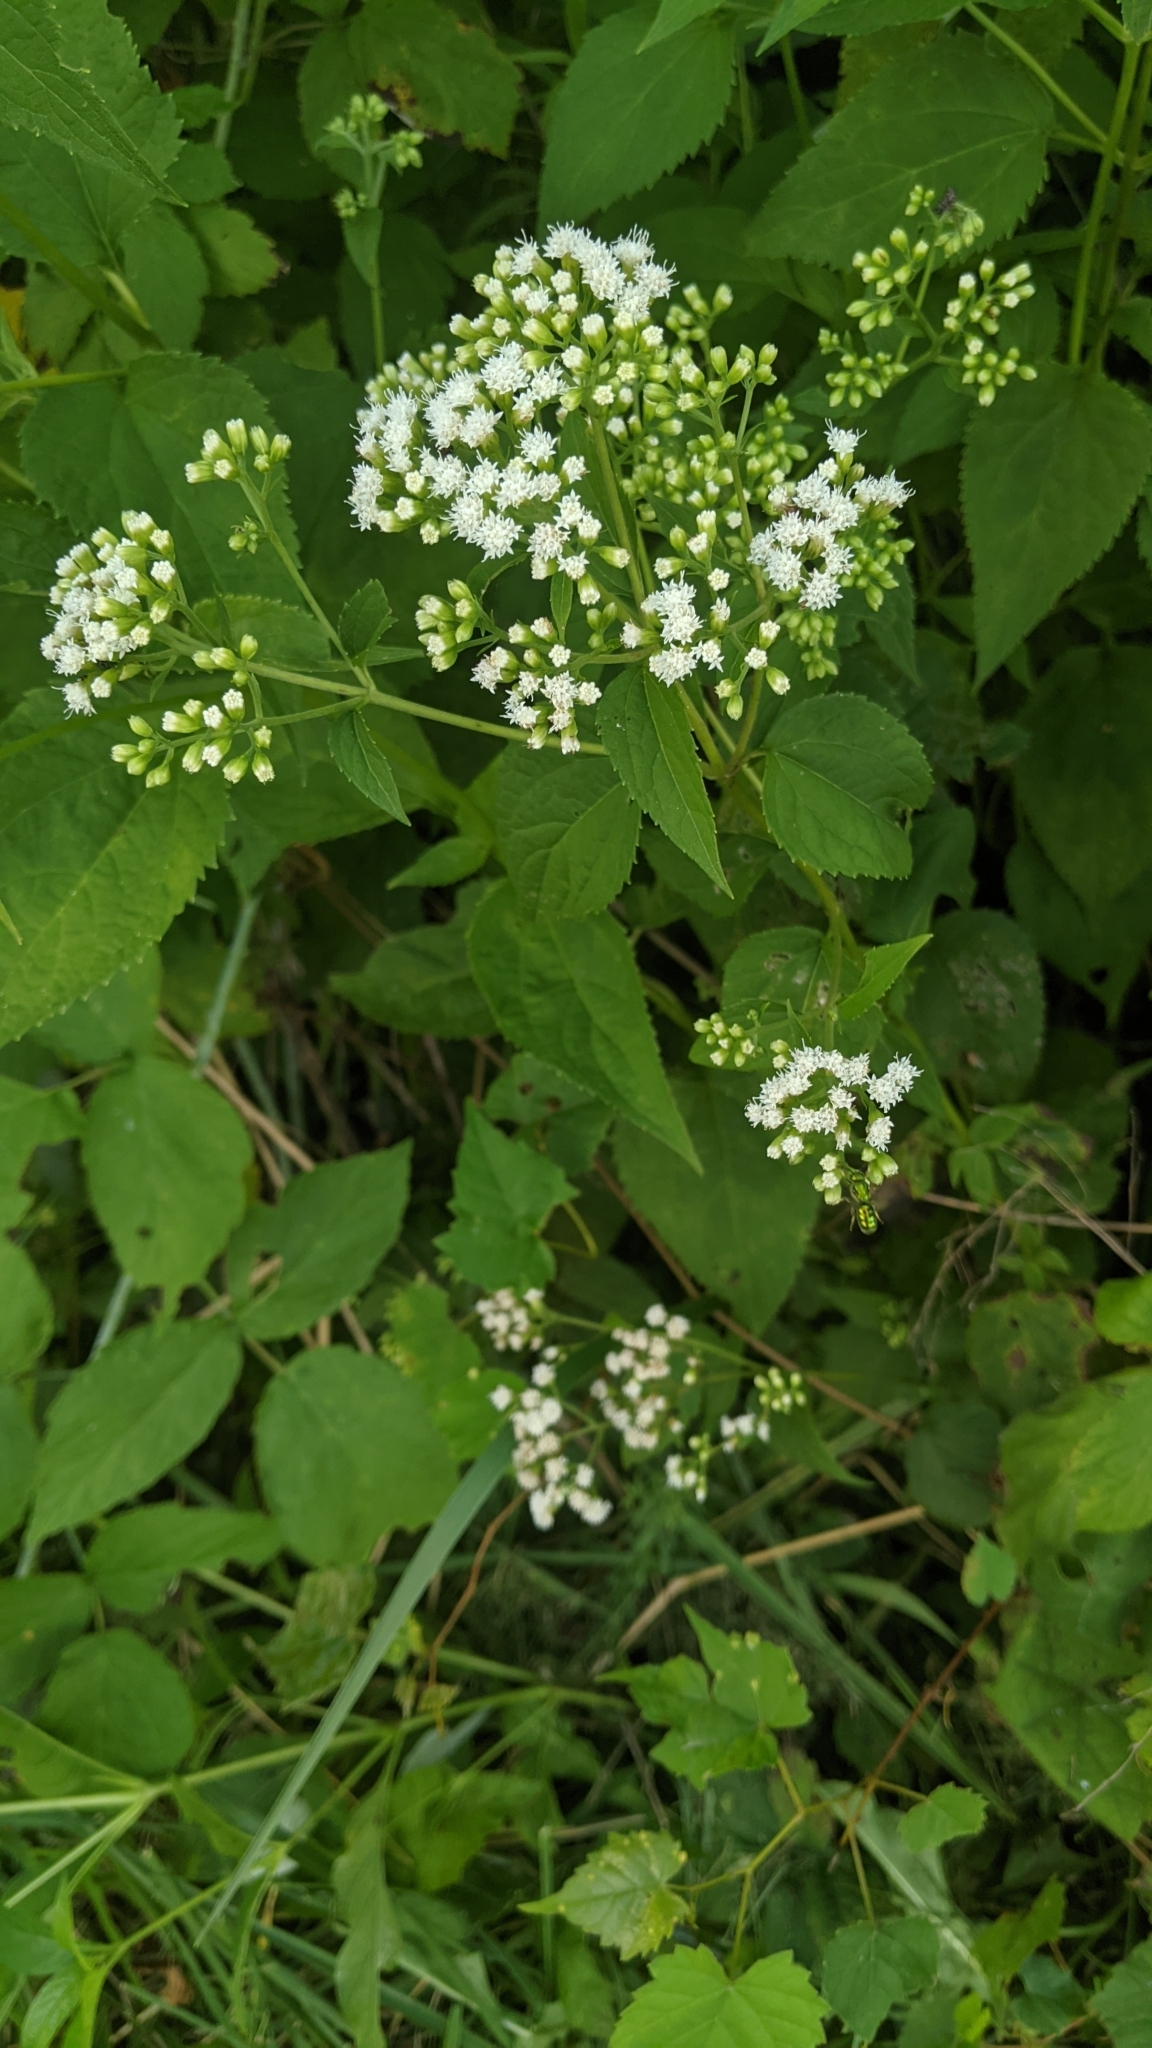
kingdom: Plantae
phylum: Tracheophyta
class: Magnoliopsida
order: Asterales
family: Asteraceae
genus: Ageratina
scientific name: Ageratina altissima
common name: White snakeroot
